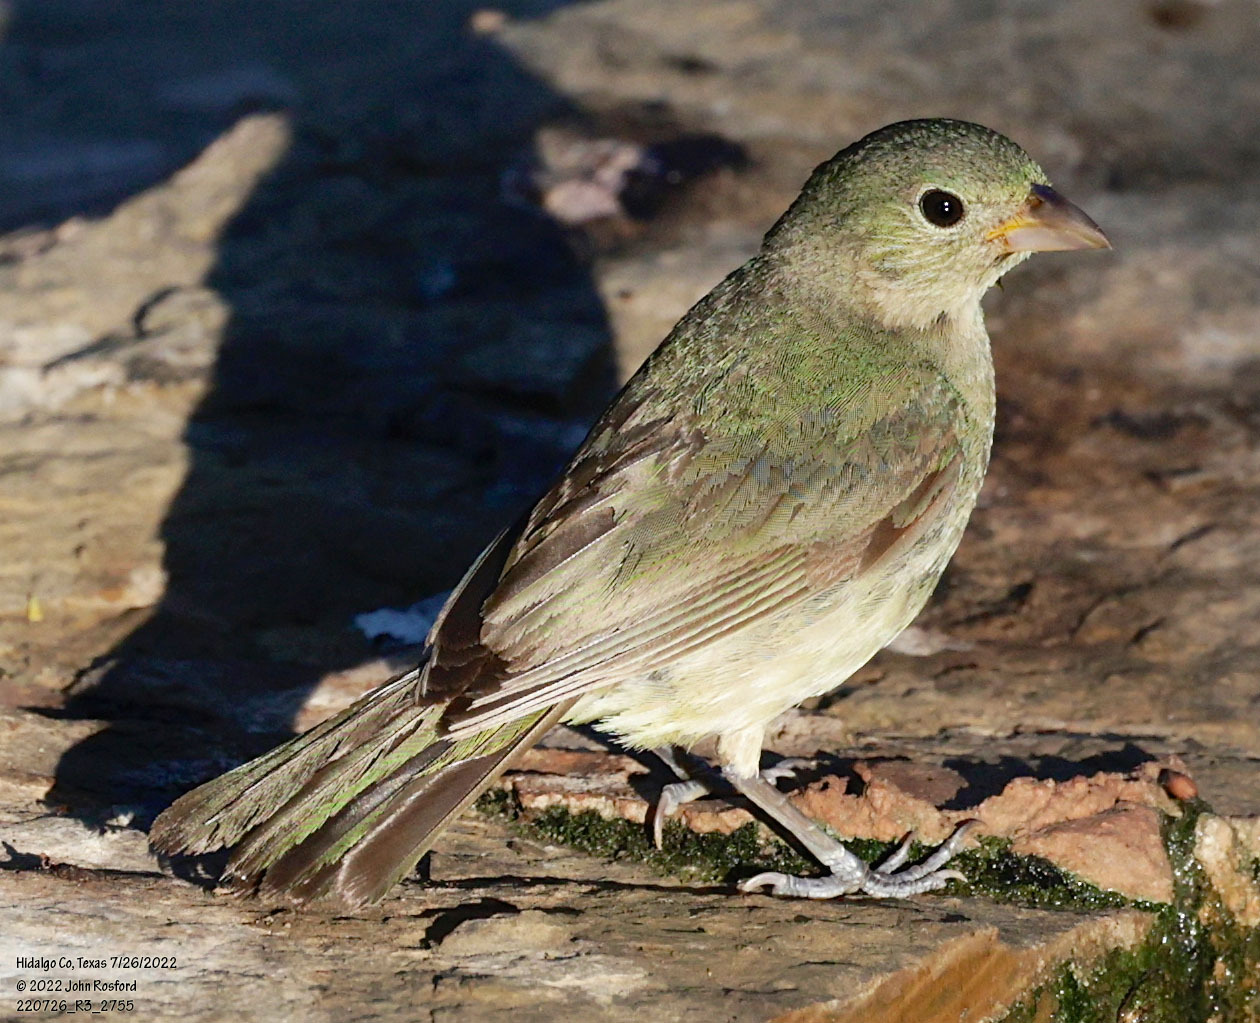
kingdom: Animalia
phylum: Chordata
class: Aves
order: Passeriformes
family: Cardinalidae
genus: Passerina
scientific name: Passerina ciris
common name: Painted bunting
